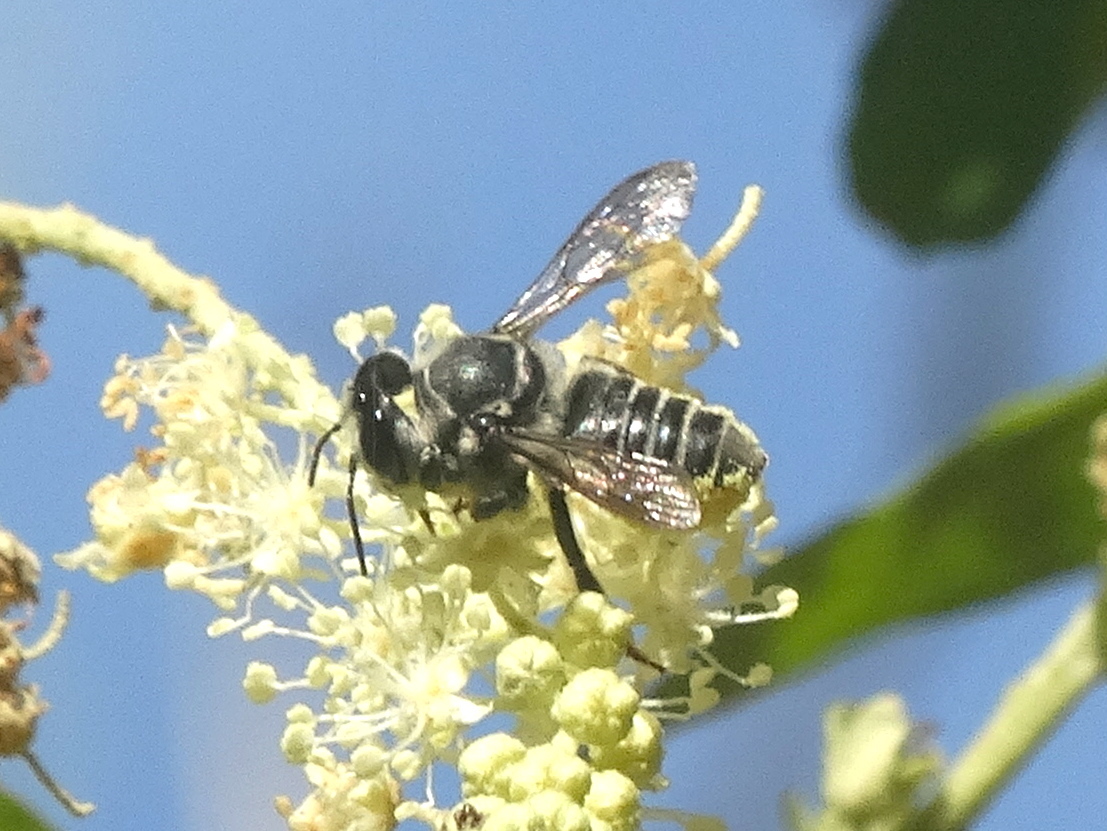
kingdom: Animalia
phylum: Arthropoda
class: Insecta
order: Hymenoptera
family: Megachilidae
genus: Megachile
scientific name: Megachile
